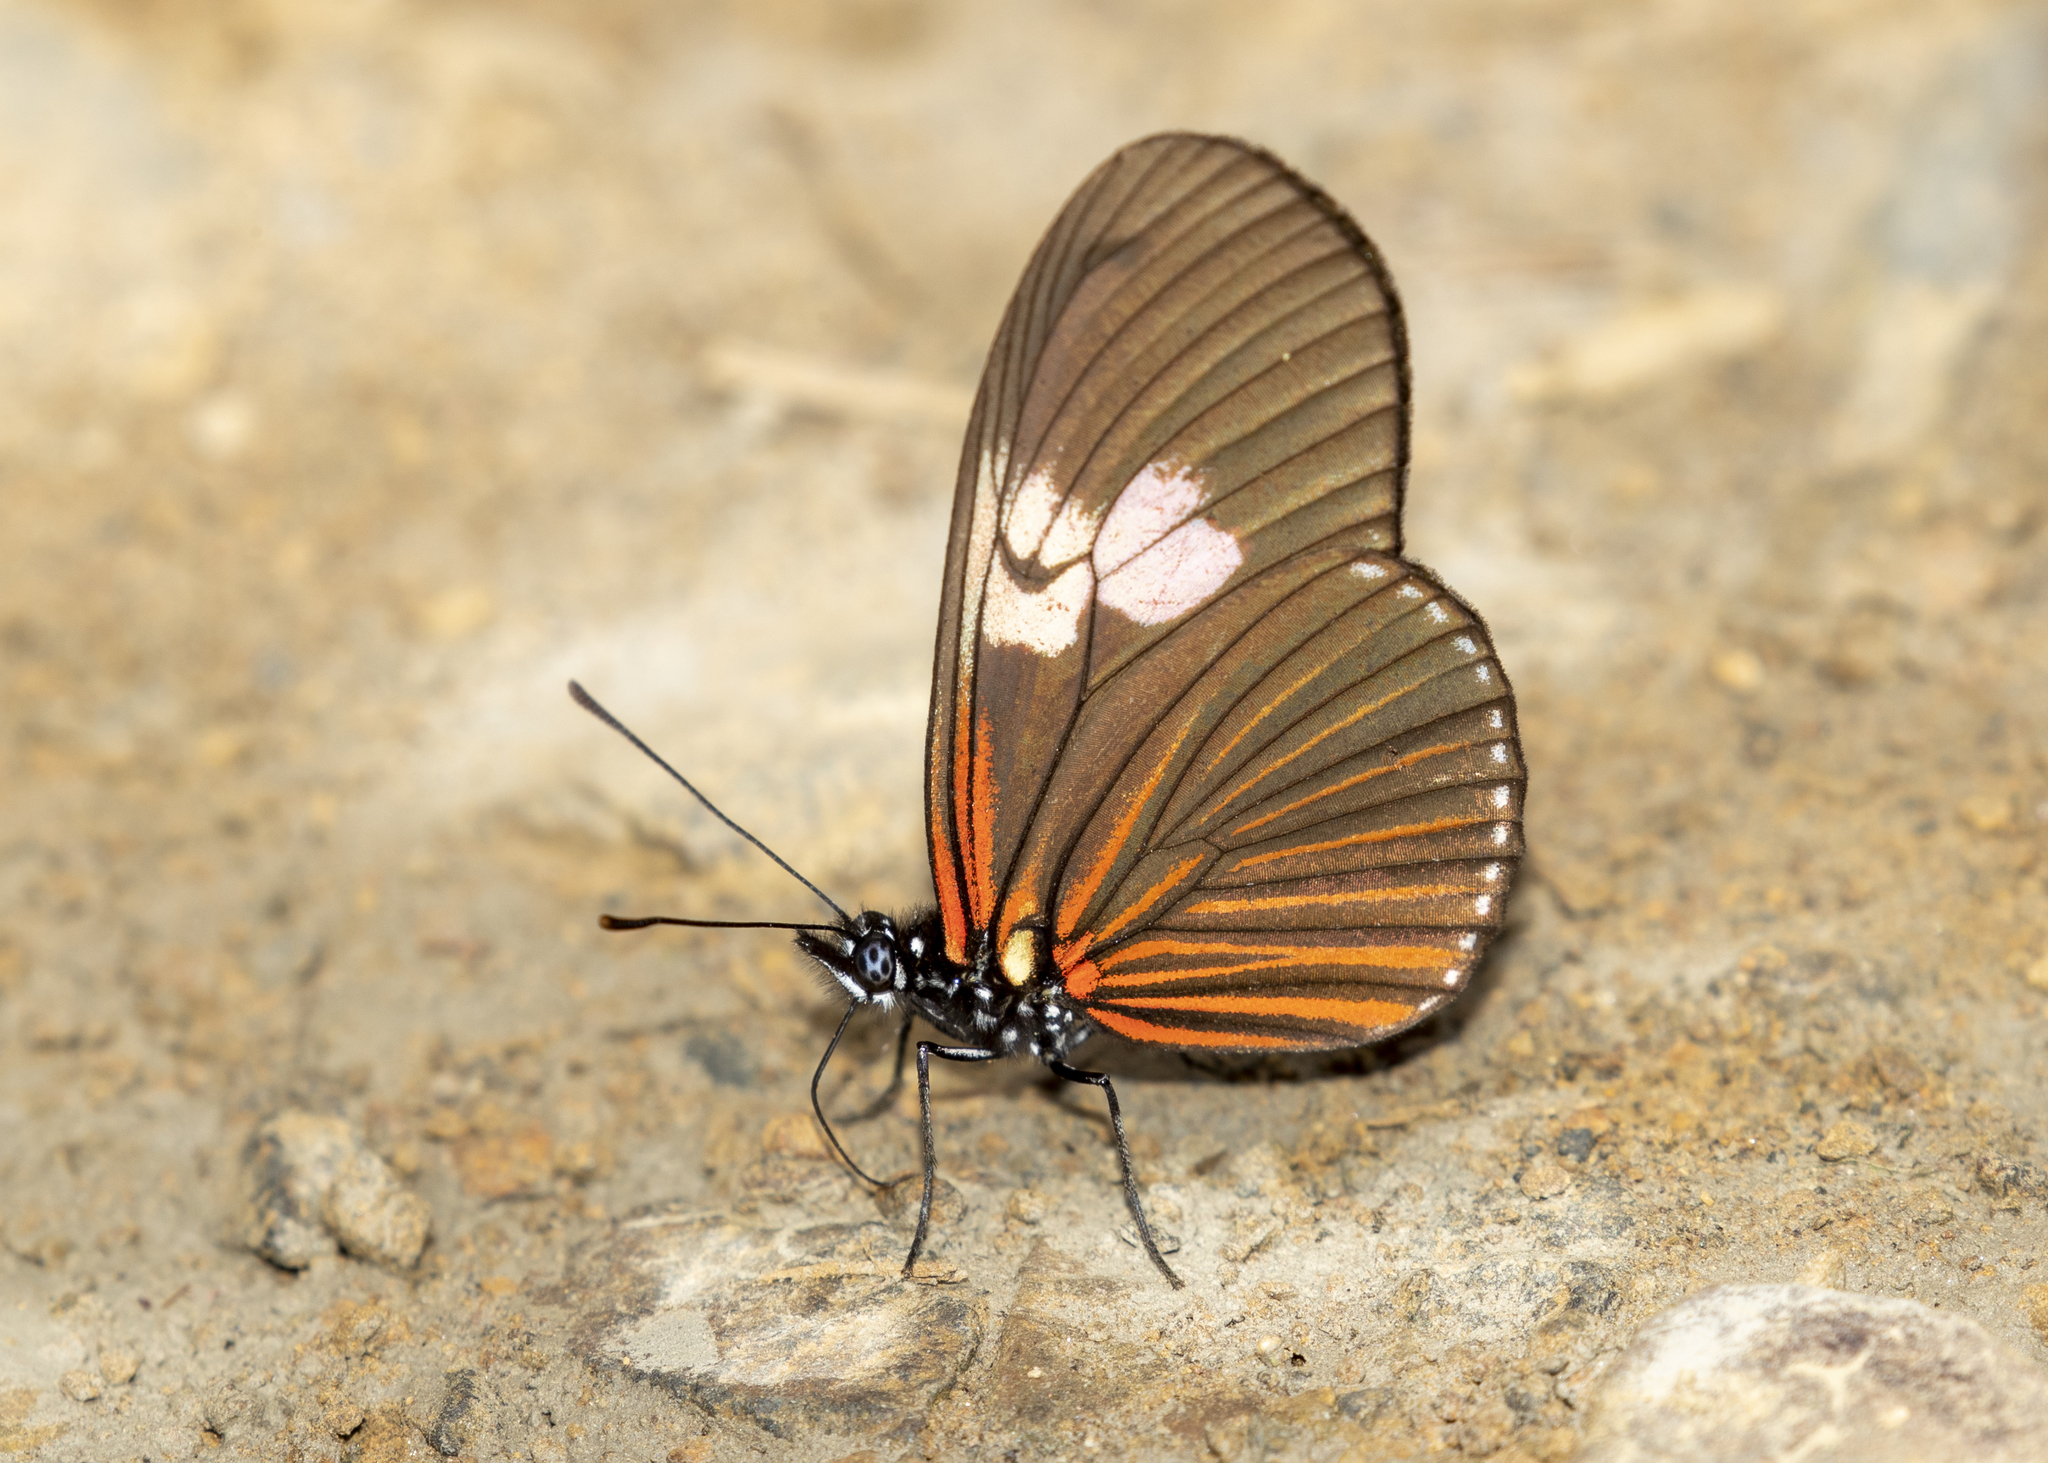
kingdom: Animalia
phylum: Arthropoda
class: Insecta
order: Lepidoptera
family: Nymphalidae
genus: Eueides
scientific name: Eueides heliconioides
